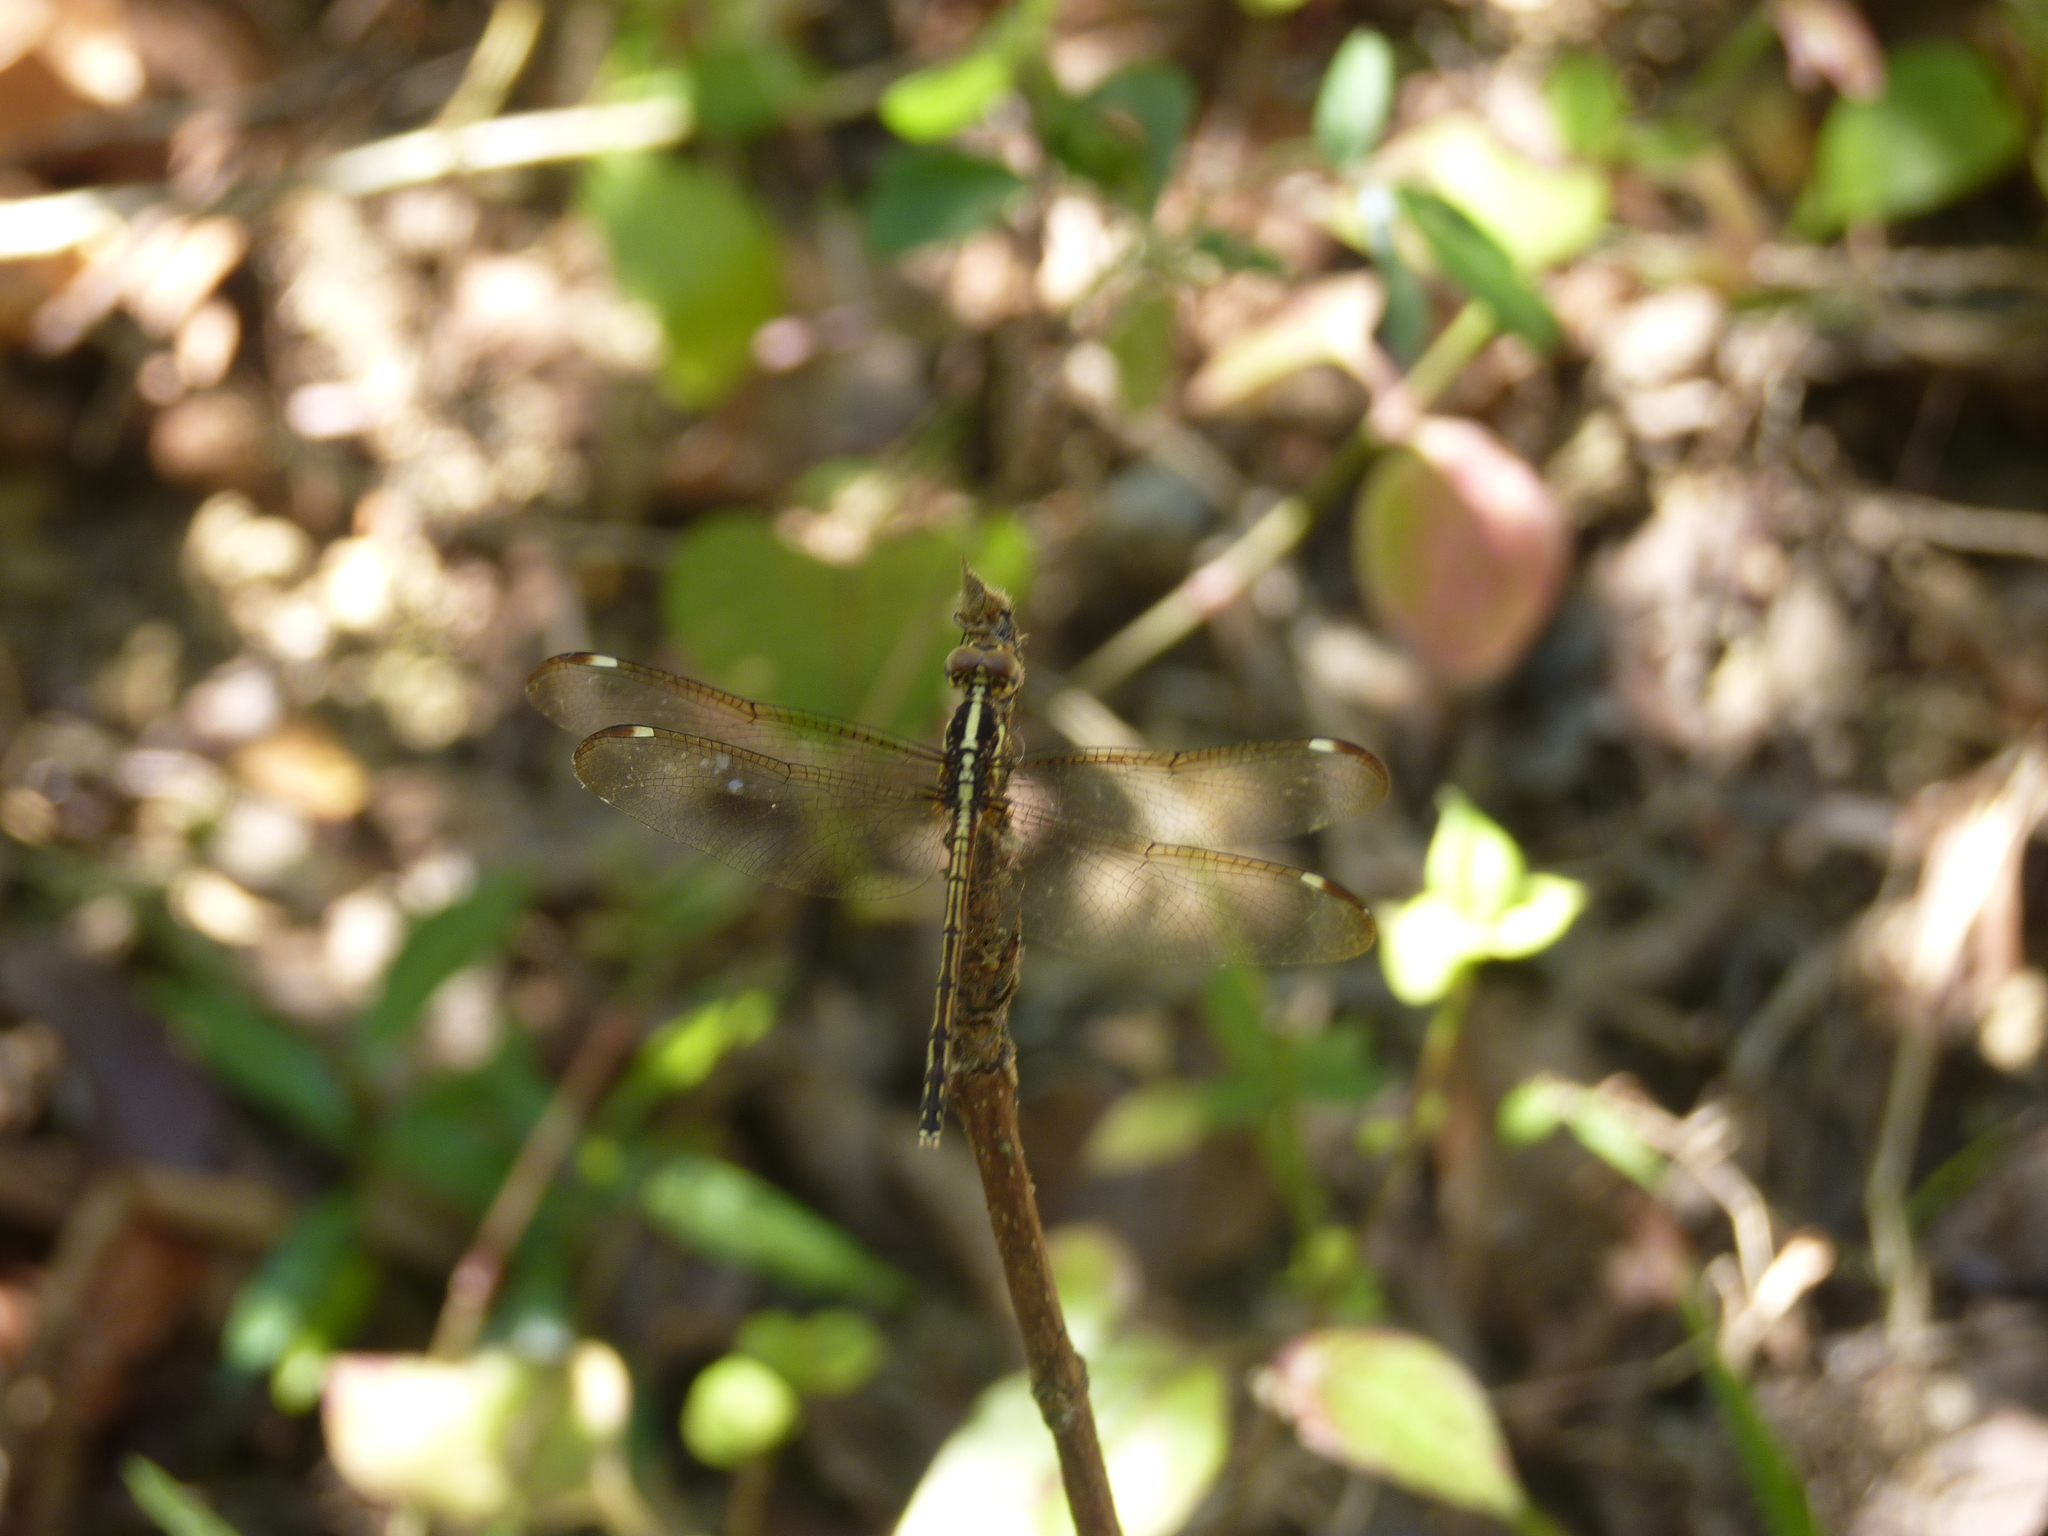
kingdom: Animalia
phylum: Arthropoda
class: Insecta
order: Odonata
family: Libellulidae
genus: Hemistigma
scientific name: Hemistigma affine
